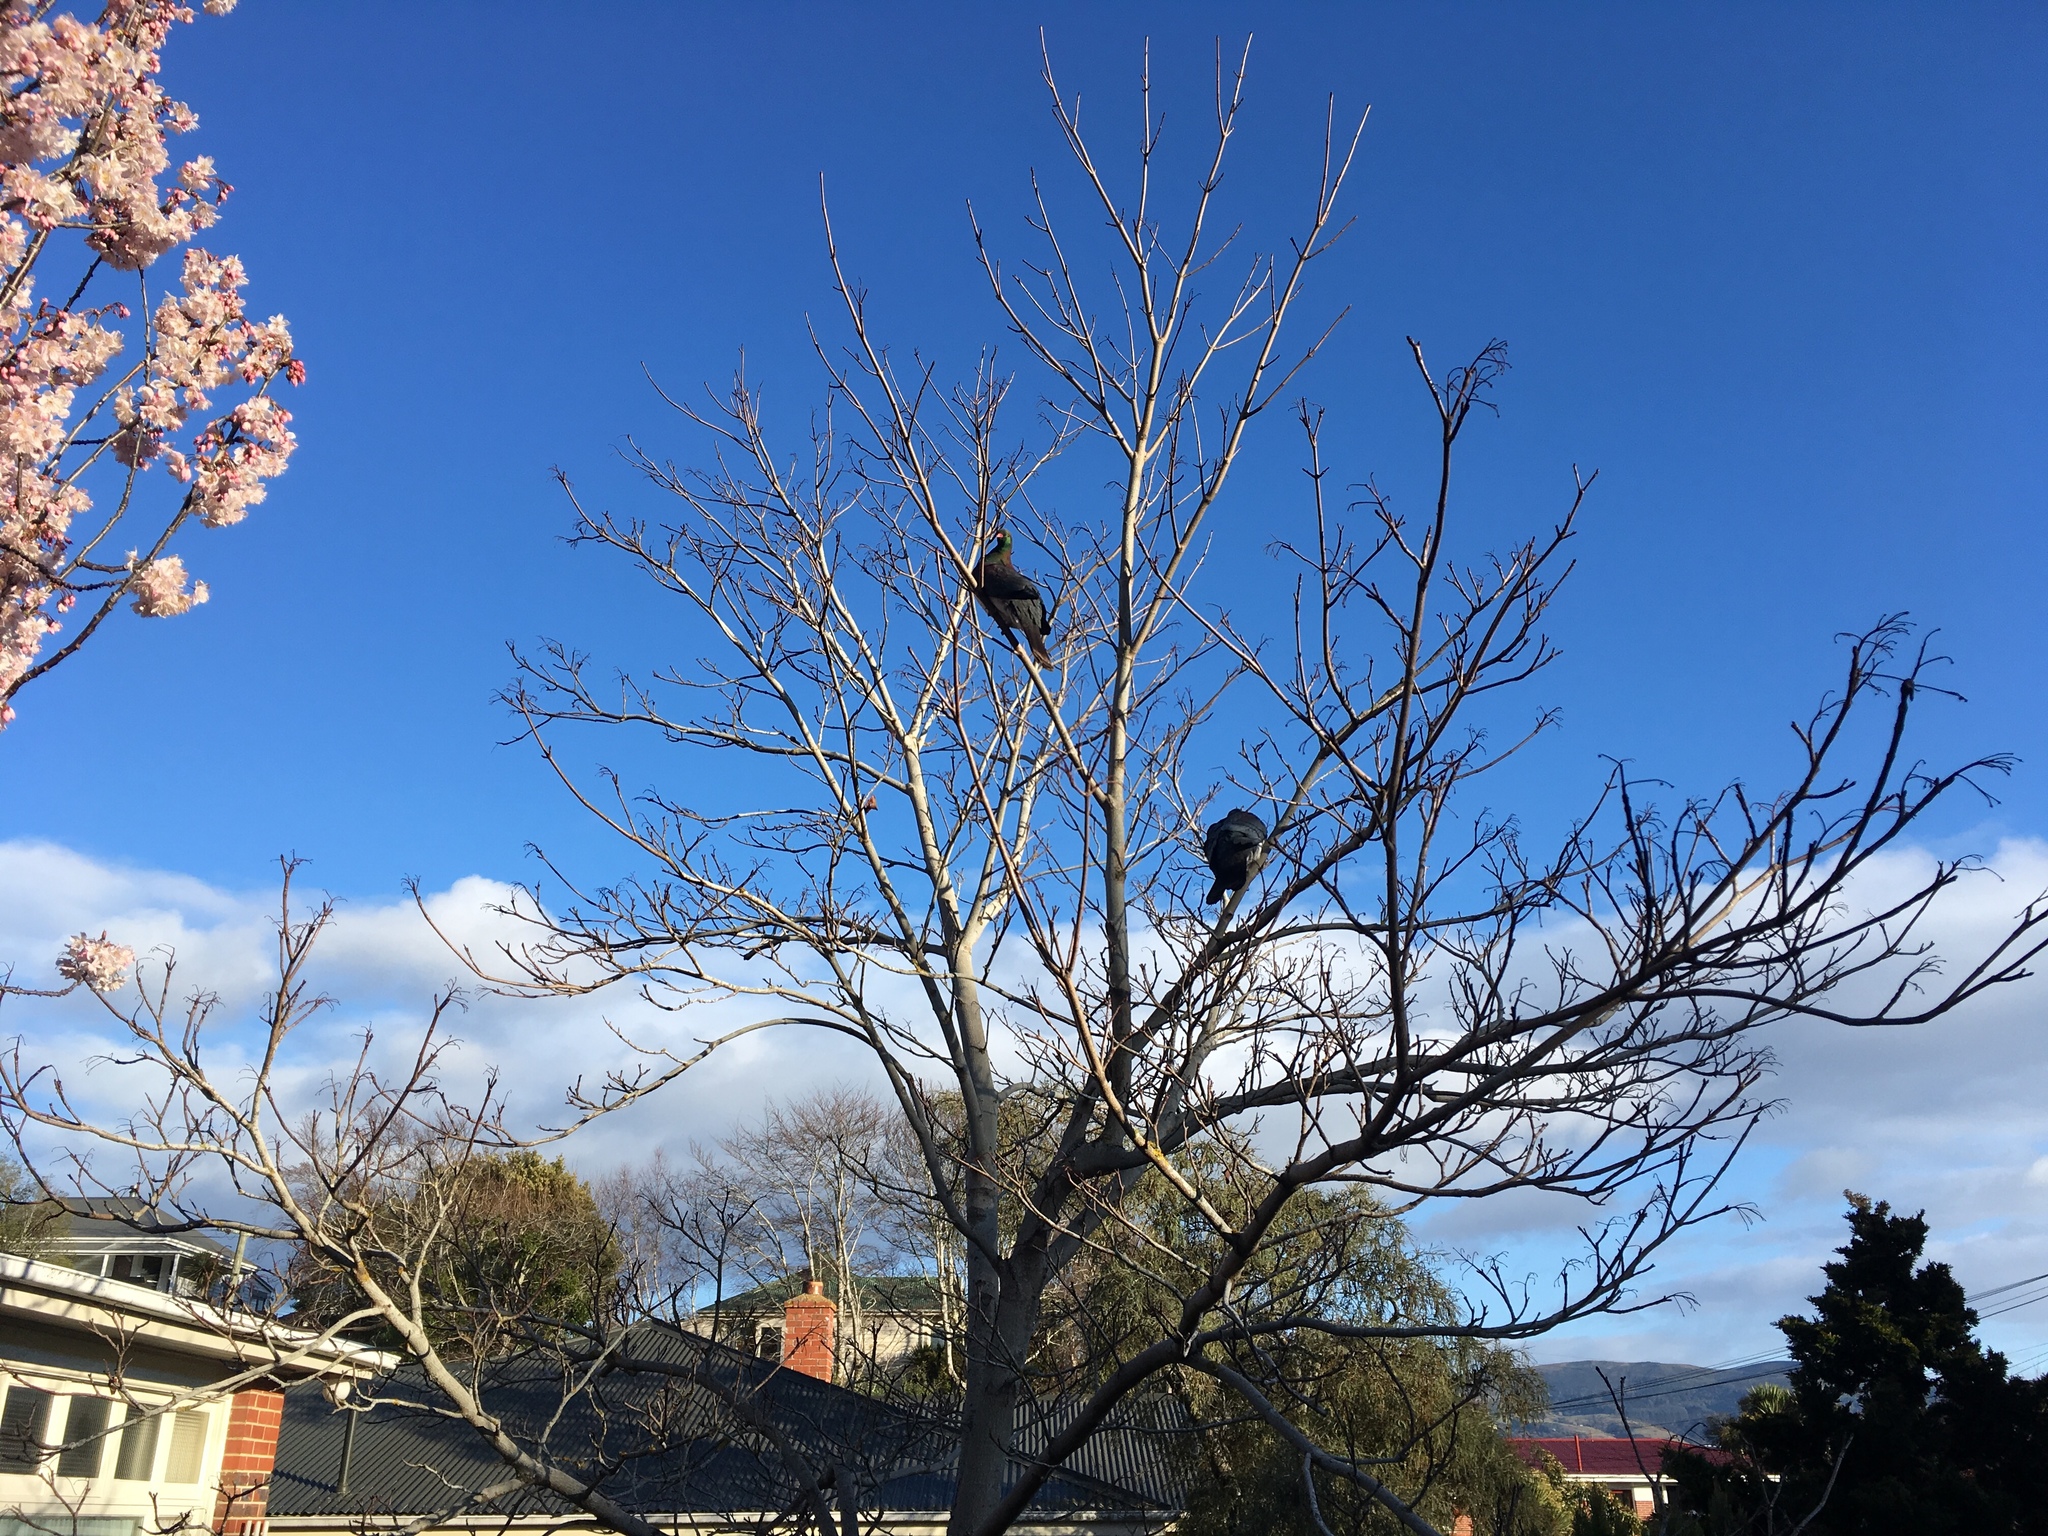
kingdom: Animalia
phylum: Chordata
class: Aves
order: Columbiformes
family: Columbidae
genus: Hemiphaga
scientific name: Hemiphaga novaeseelandiae
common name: New zealand pigeon
